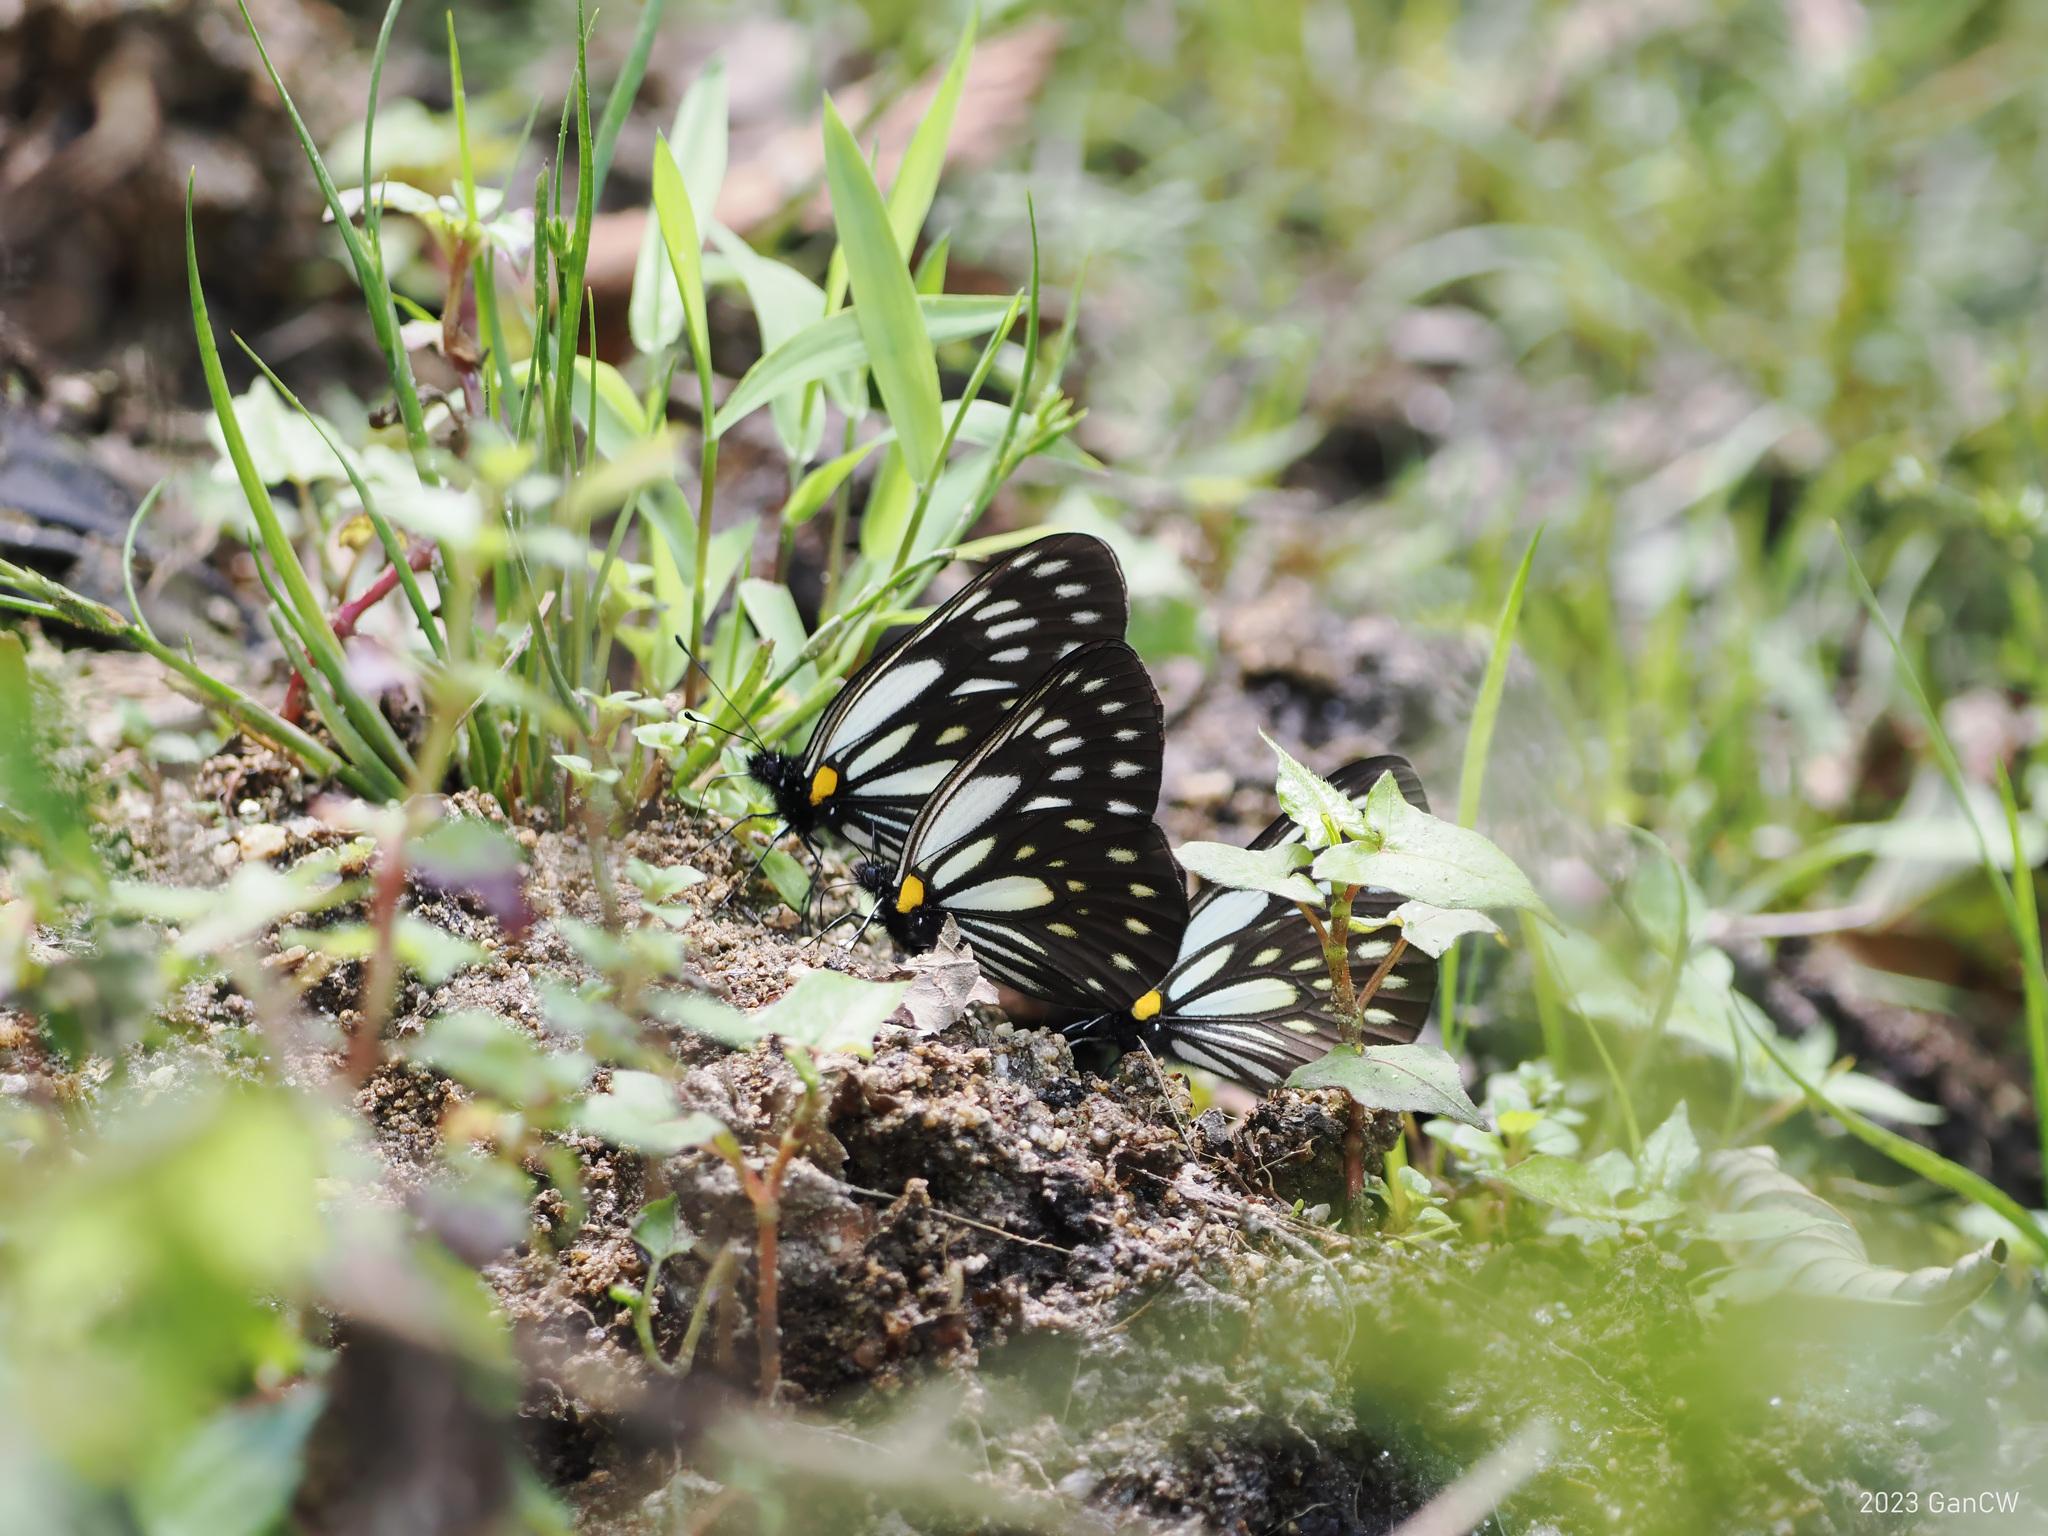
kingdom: Animalia
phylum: Arthropoda
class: Insecta
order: Lepidoptera
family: Pieridae
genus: Aporia
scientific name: Aporia agathon
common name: Great blackvein
